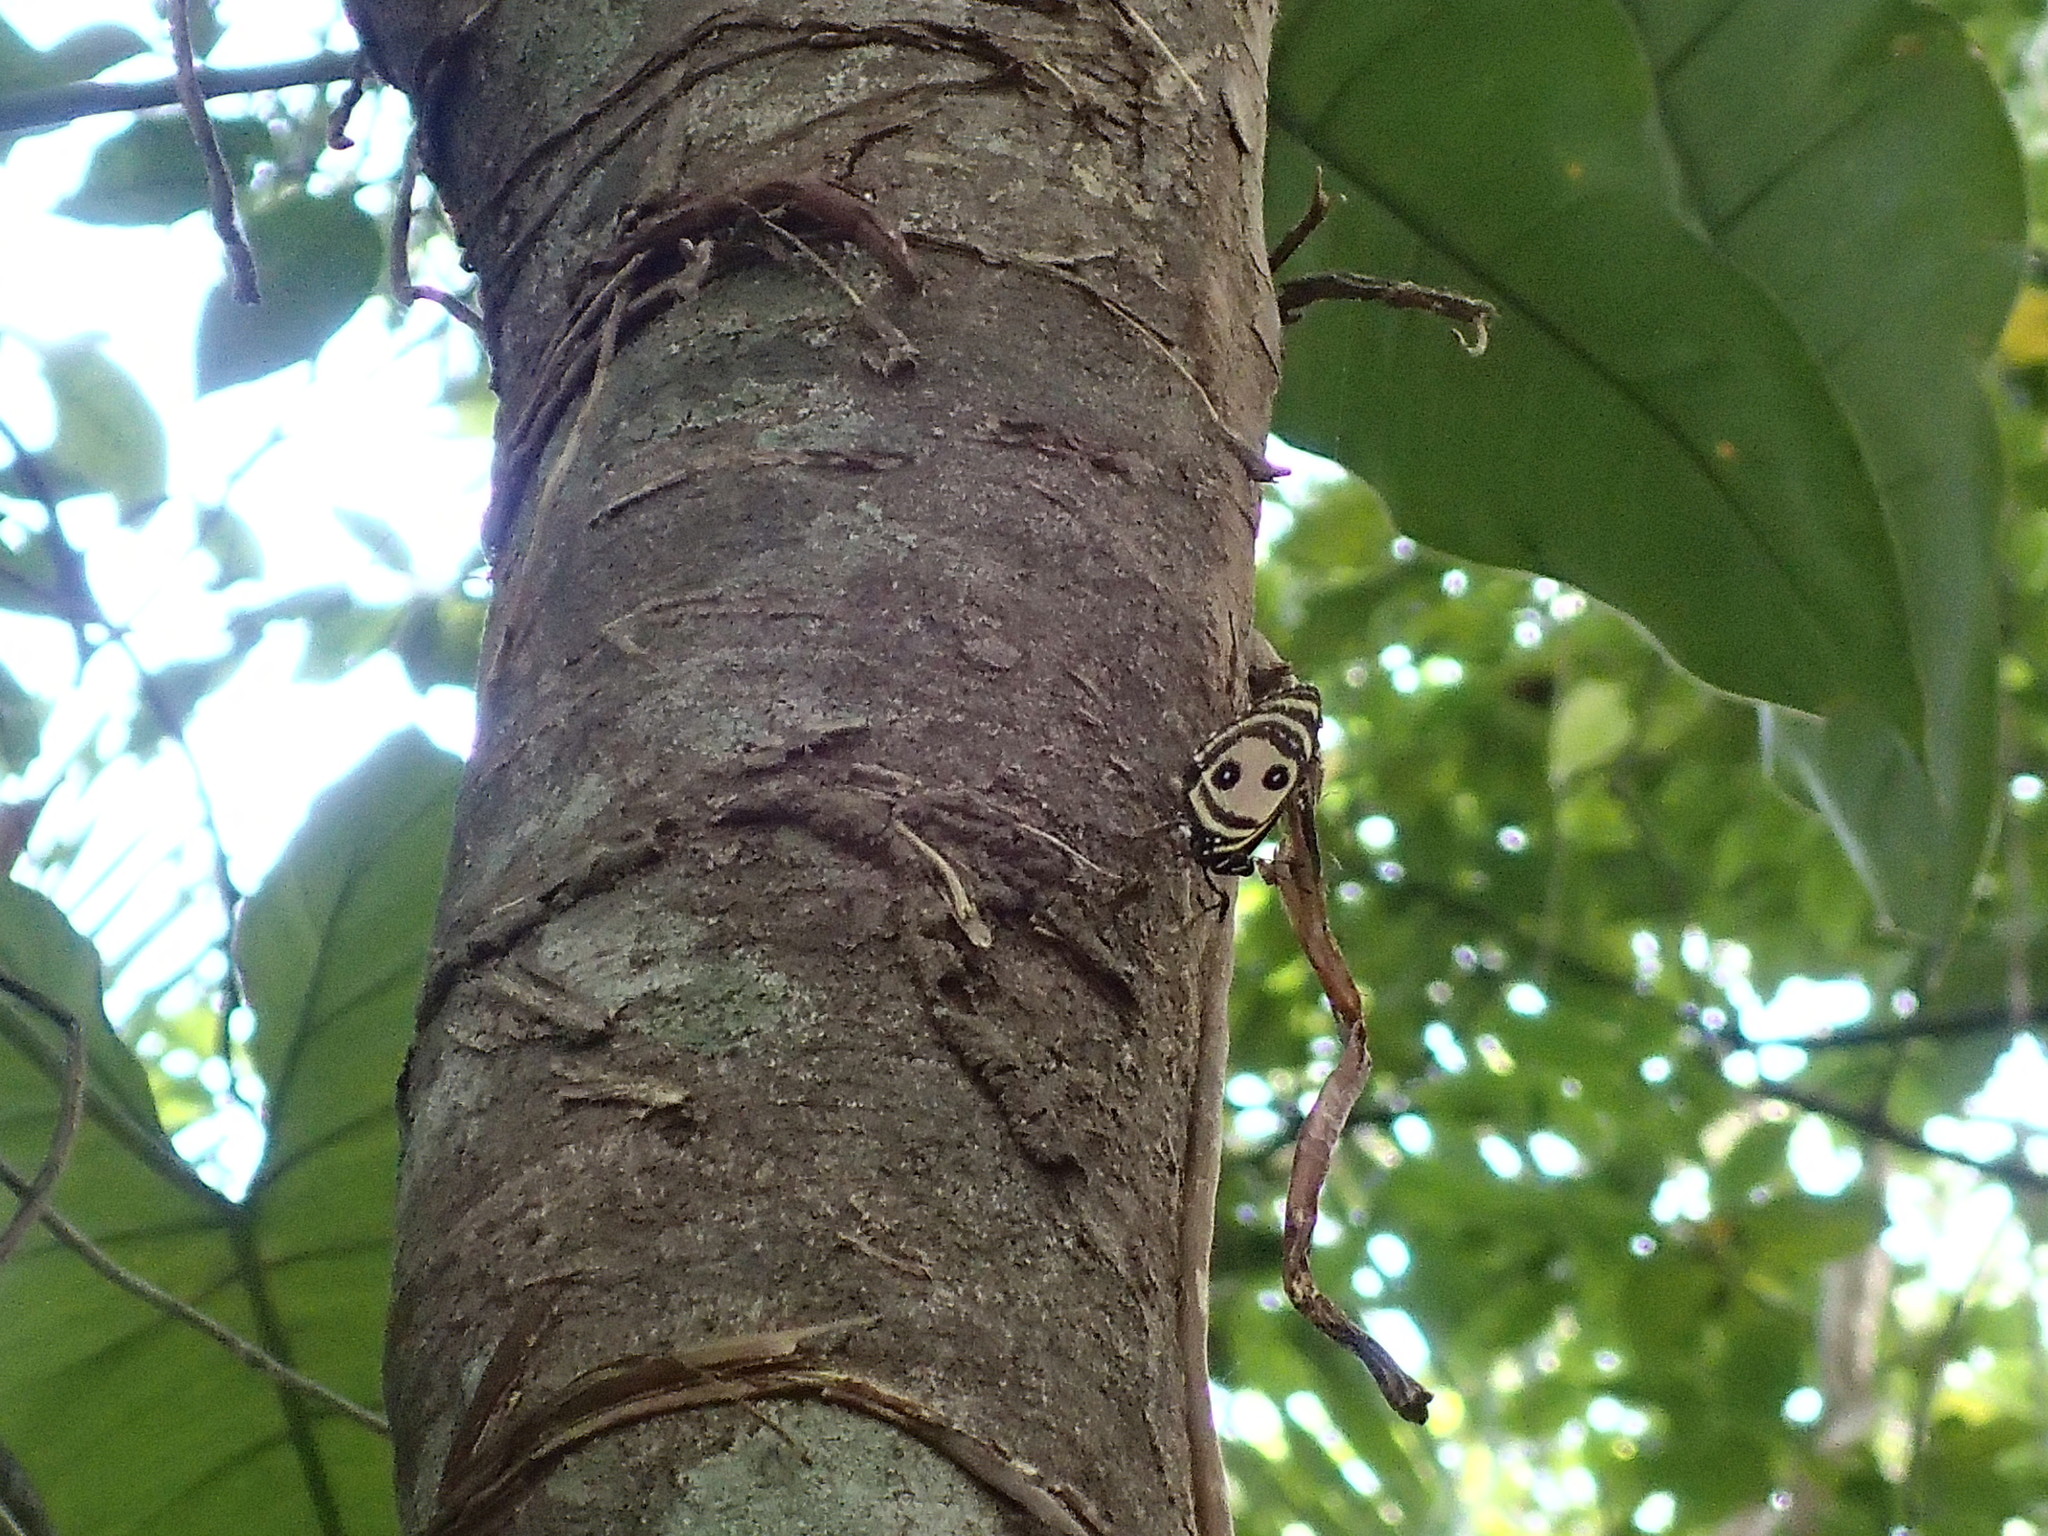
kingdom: Animalia
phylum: Arthropoda
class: Insecta
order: Lepidoptera
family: Nymphalidae
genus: Catagramma
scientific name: Catagramma Callicore pitheas
